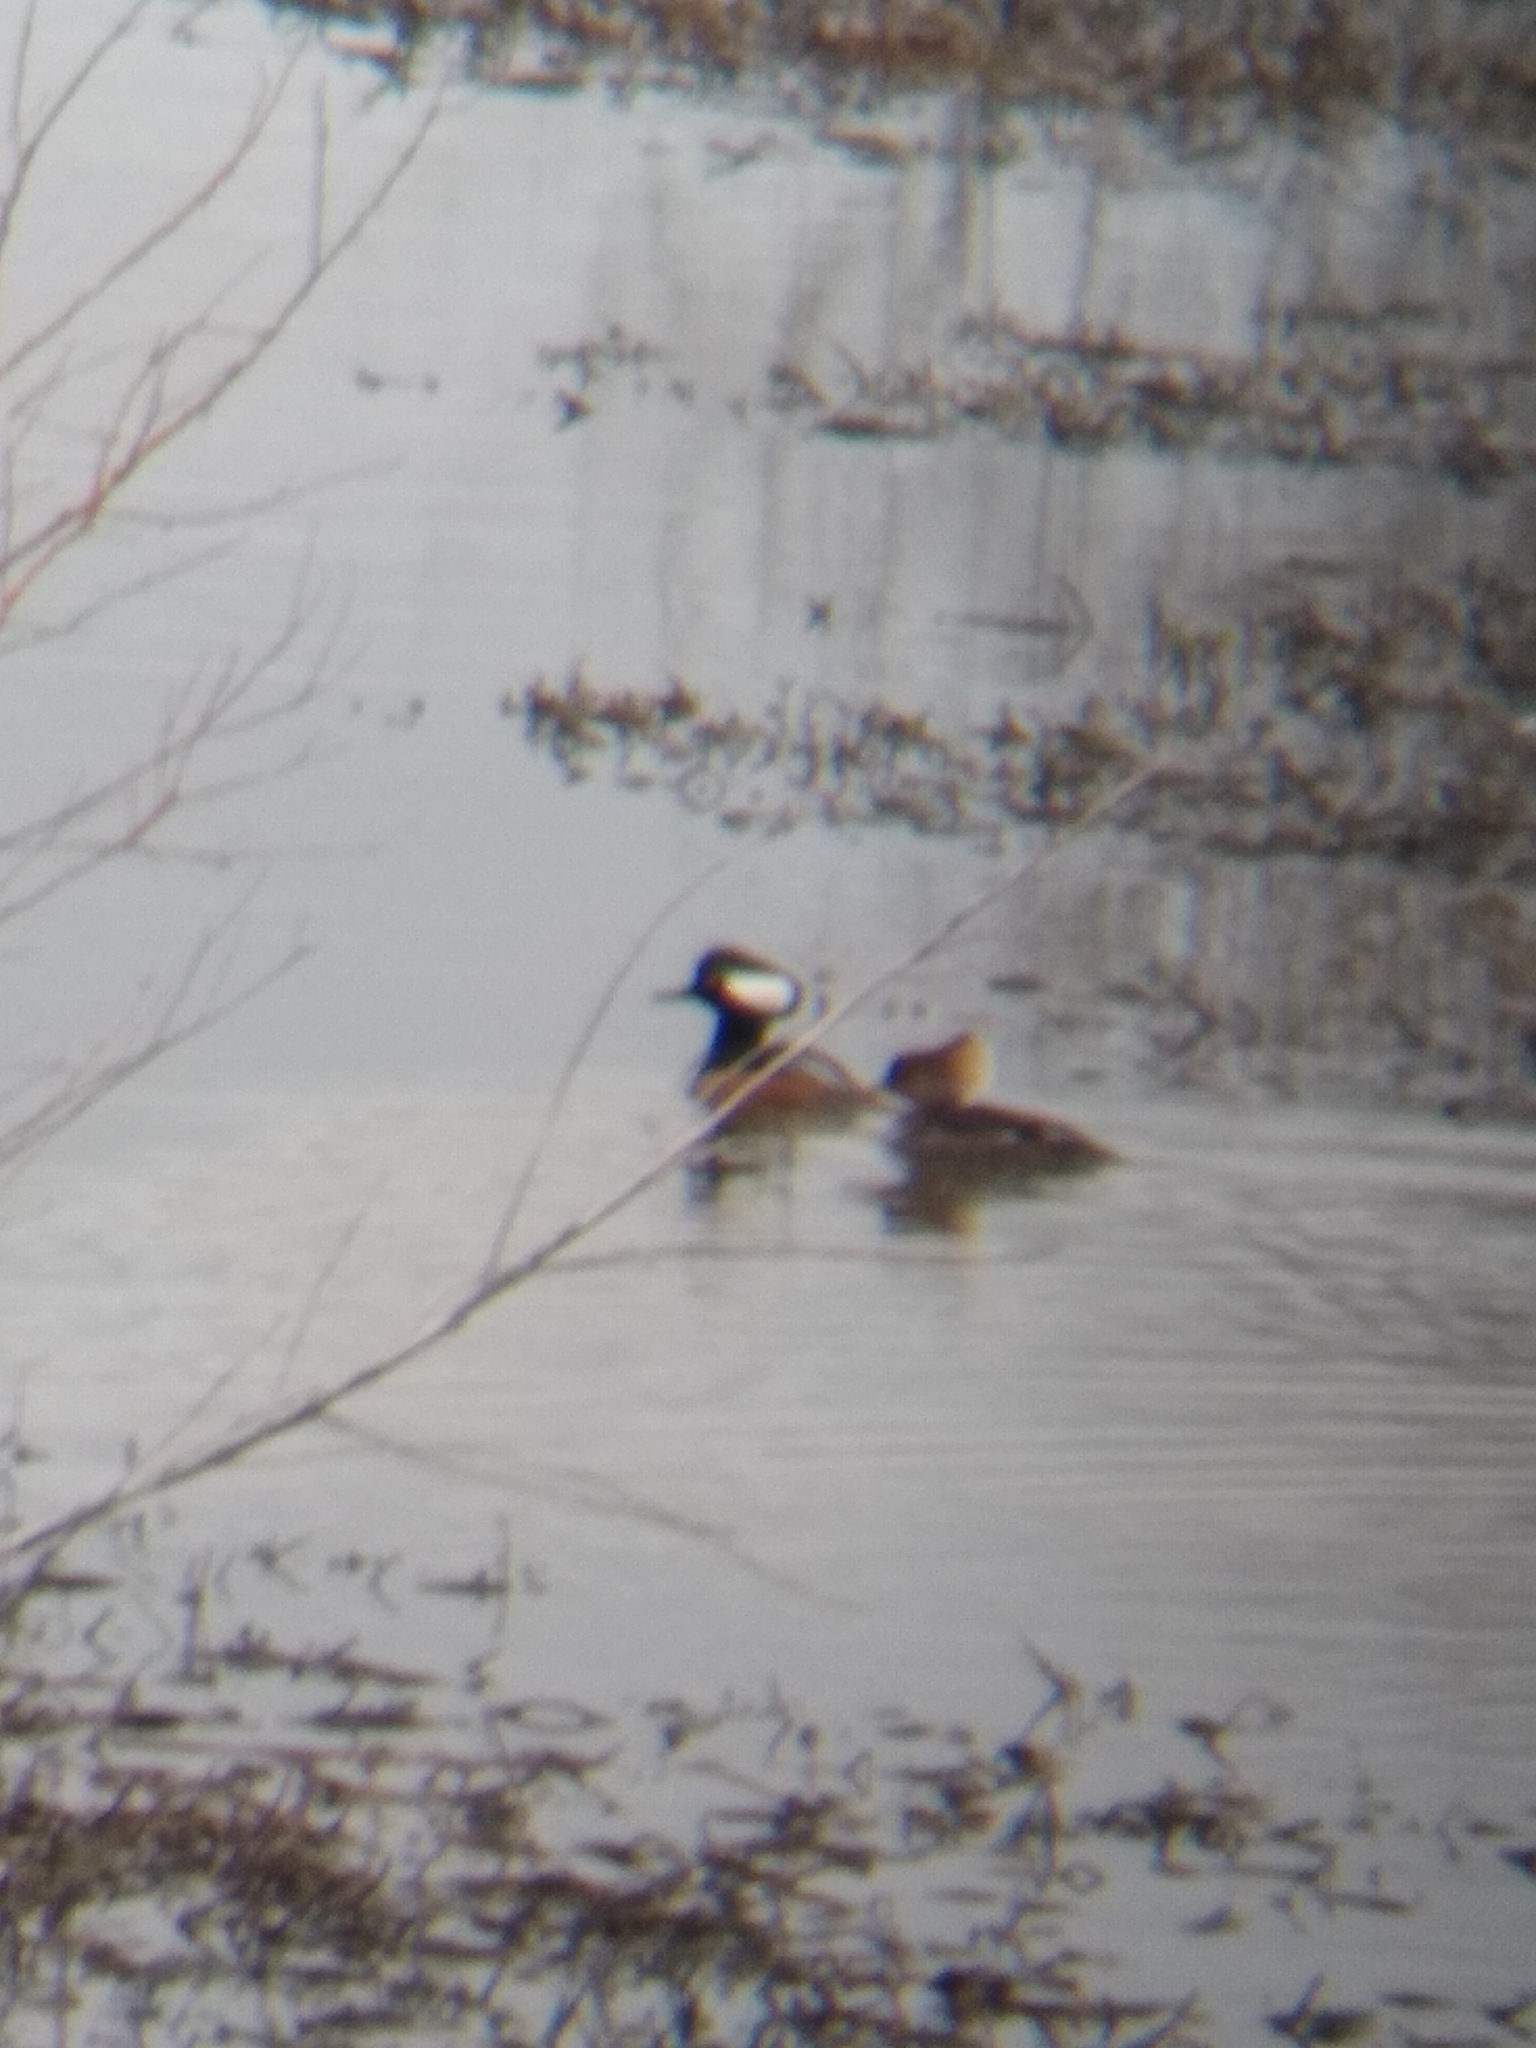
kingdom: Animalia
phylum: Chordata
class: Aves
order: Anseriformes
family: Anatidae
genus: Lophodytes
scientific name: Lophodytes cucullatus
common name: Hooded merganser
